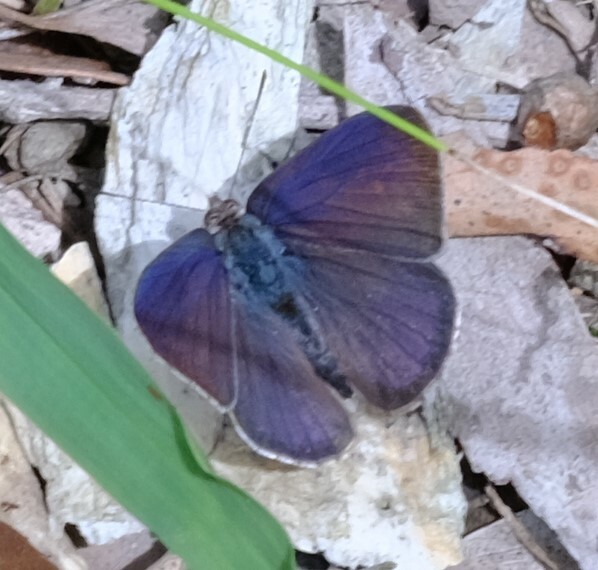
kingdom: Animalia
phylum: Arthropoda
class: Insecta
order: Lepidoptera
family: Lycaenidae
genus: Candalides
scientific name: Candalides
